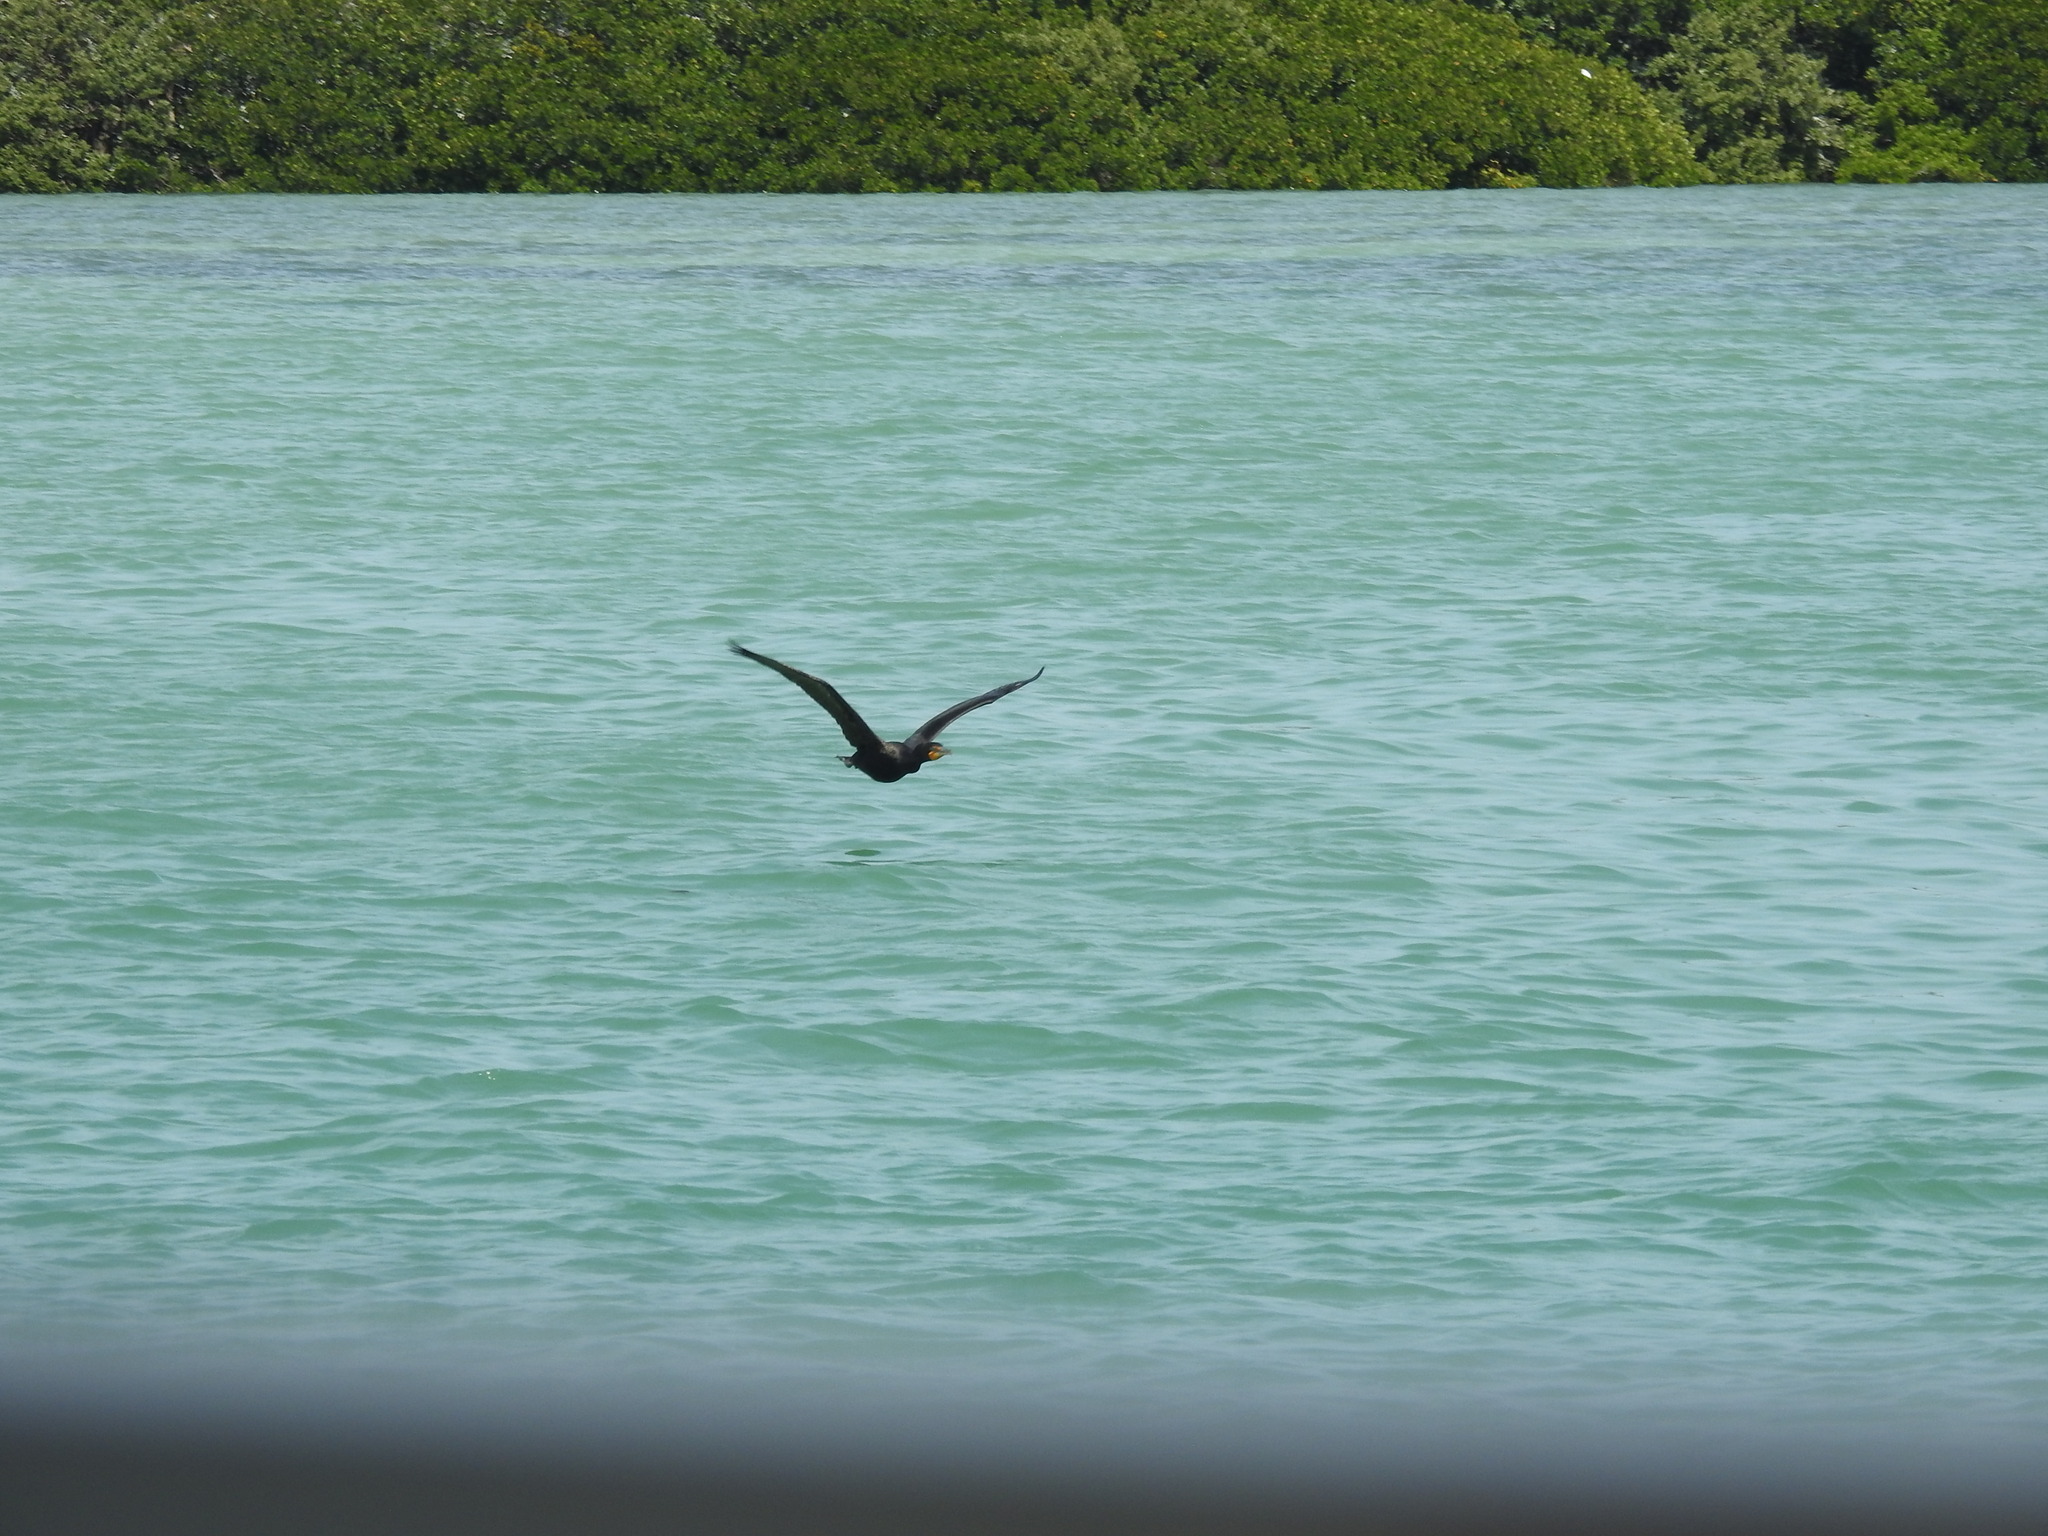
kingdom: Animalia
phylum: Chordata
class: Aves
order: Suliformes
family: Phalacrocoracidae
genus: Phalacrocorax
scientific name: Phalacrocorax auritus
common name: Double-crested cormorant
